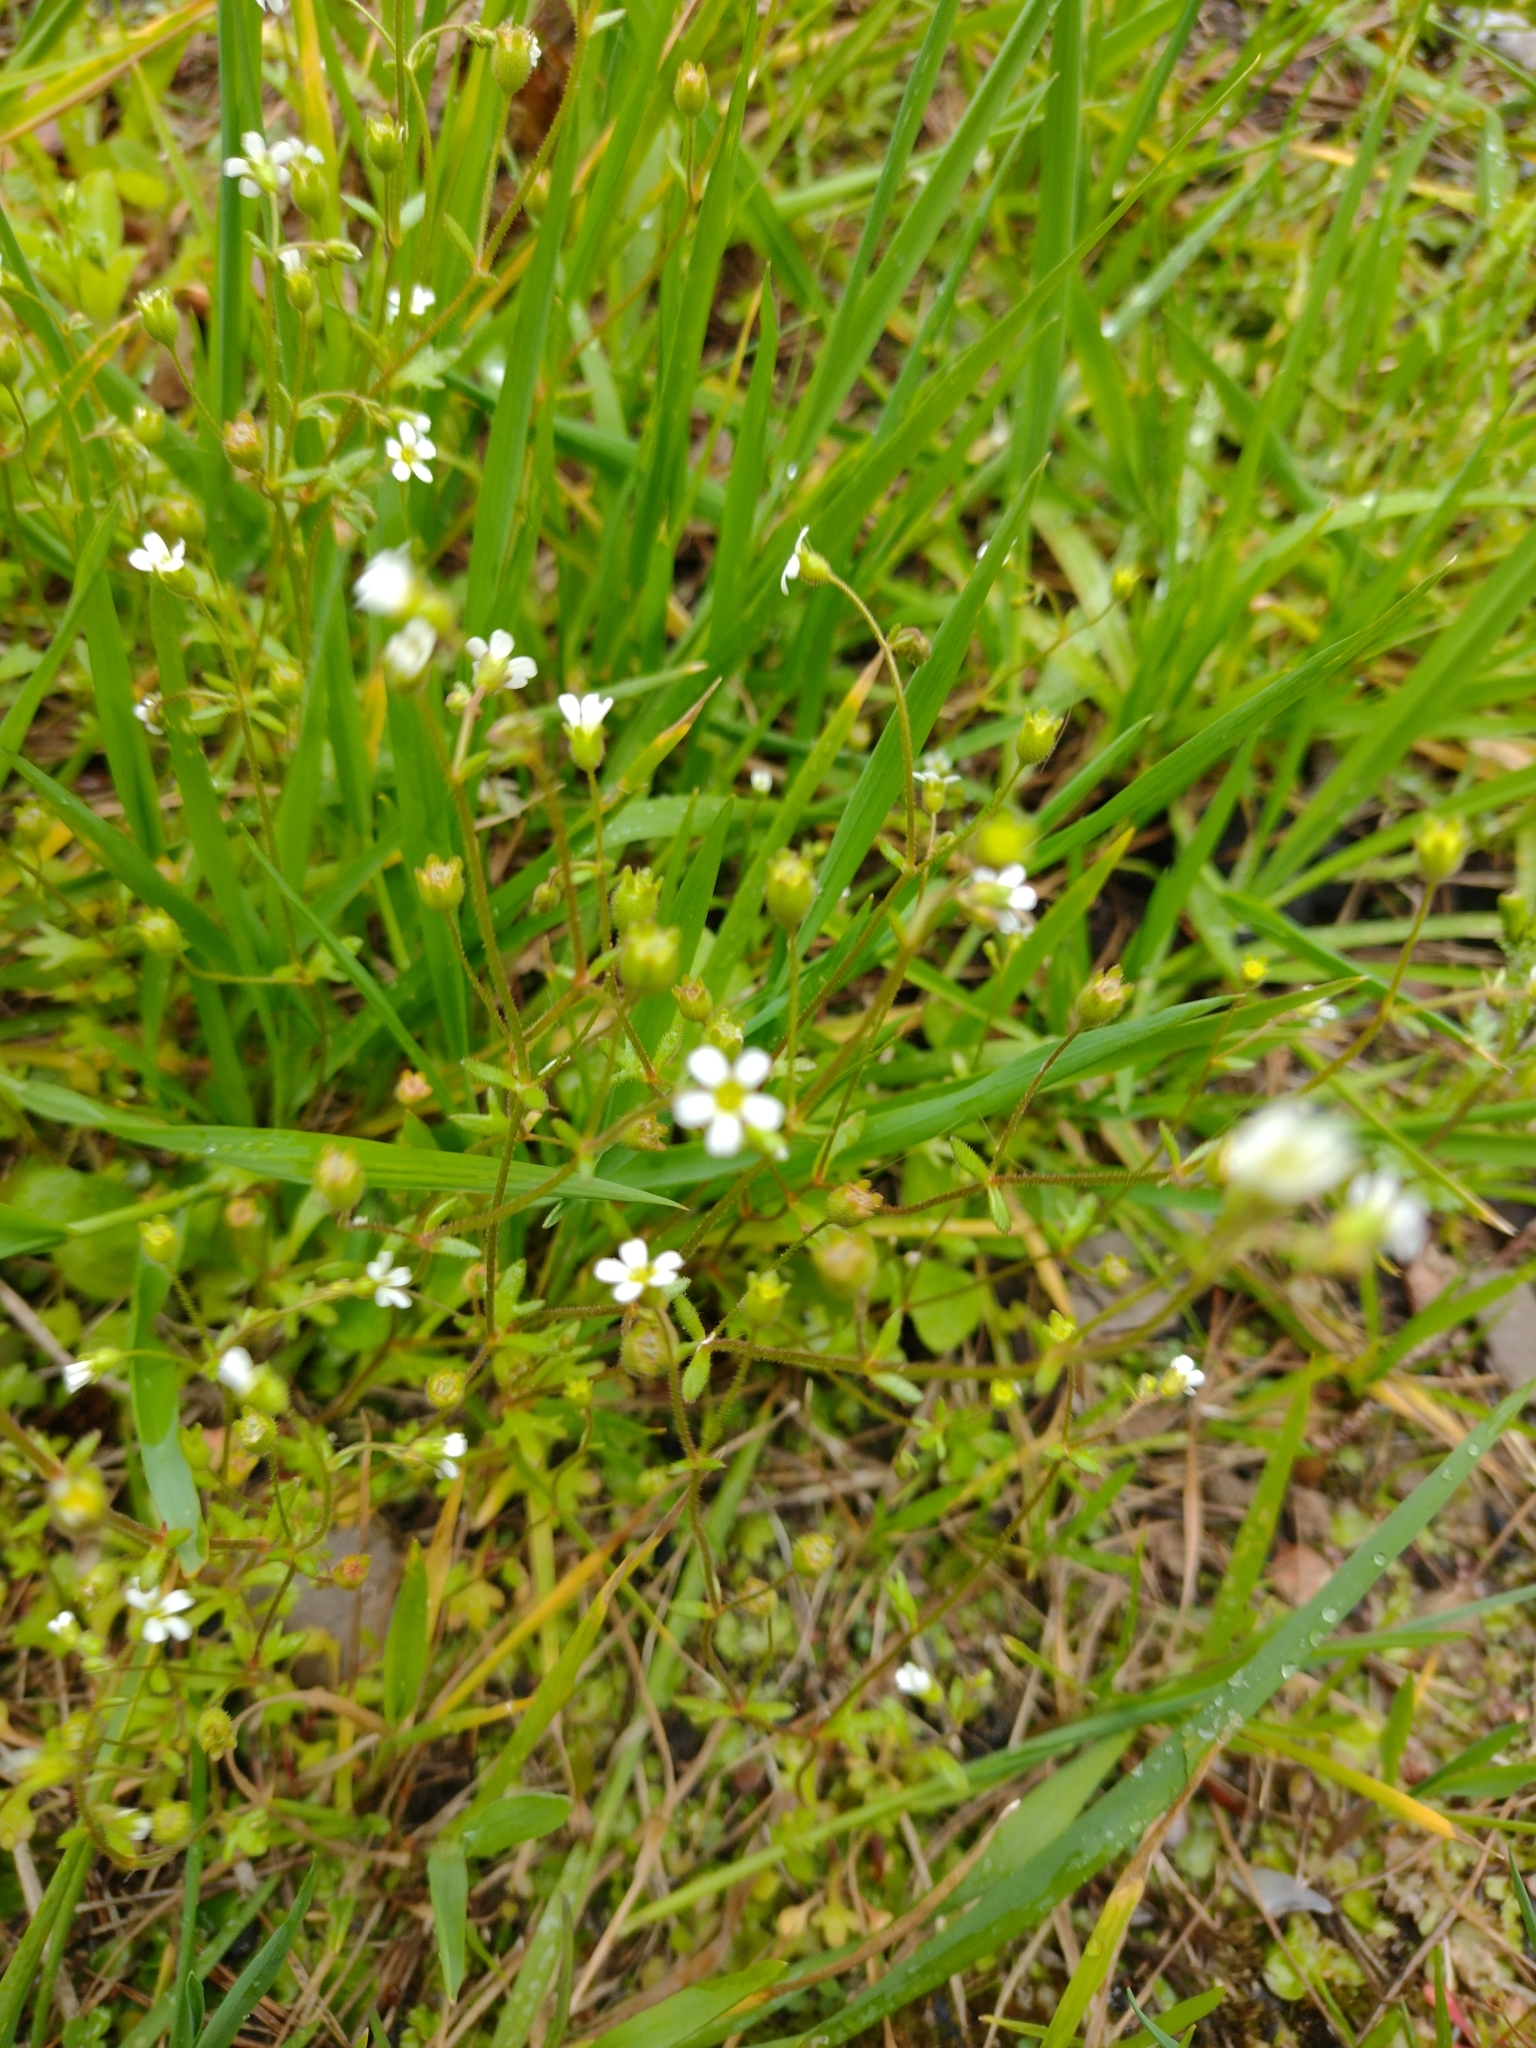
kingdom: Plantae
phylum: Tracheophyta
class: Magnoliopsida
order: Saxifragales
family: Saxifragaceae
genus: Saxifraga
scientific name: Saxifraga tridactylites
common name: Rue-leaved saxifrage
